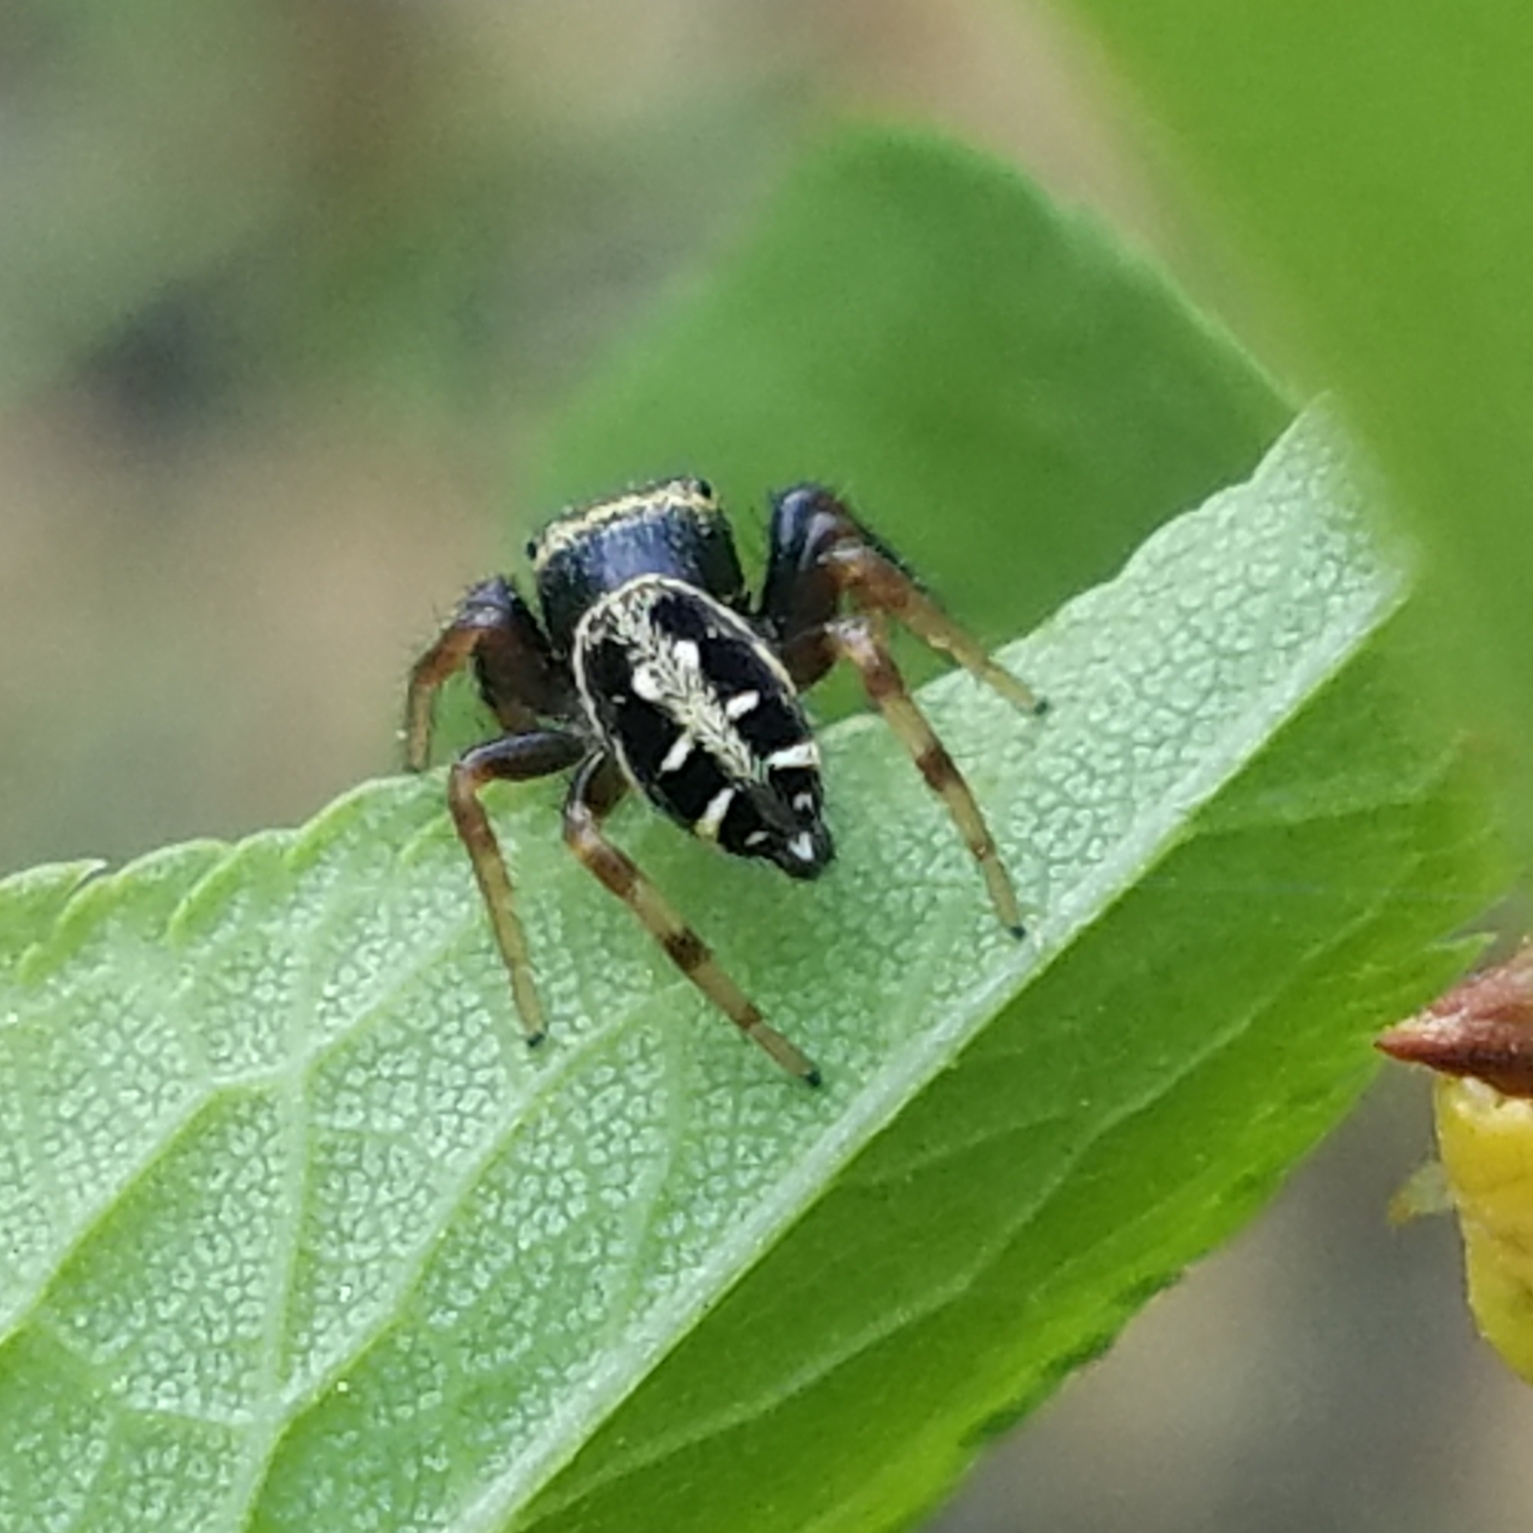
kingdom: Animalia
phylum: Arthropoda
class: Arachnida
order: Araneae
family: Salticidae
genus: Paraphidippus
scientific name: Paraphidippus aurantius
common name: Jumping spiders
